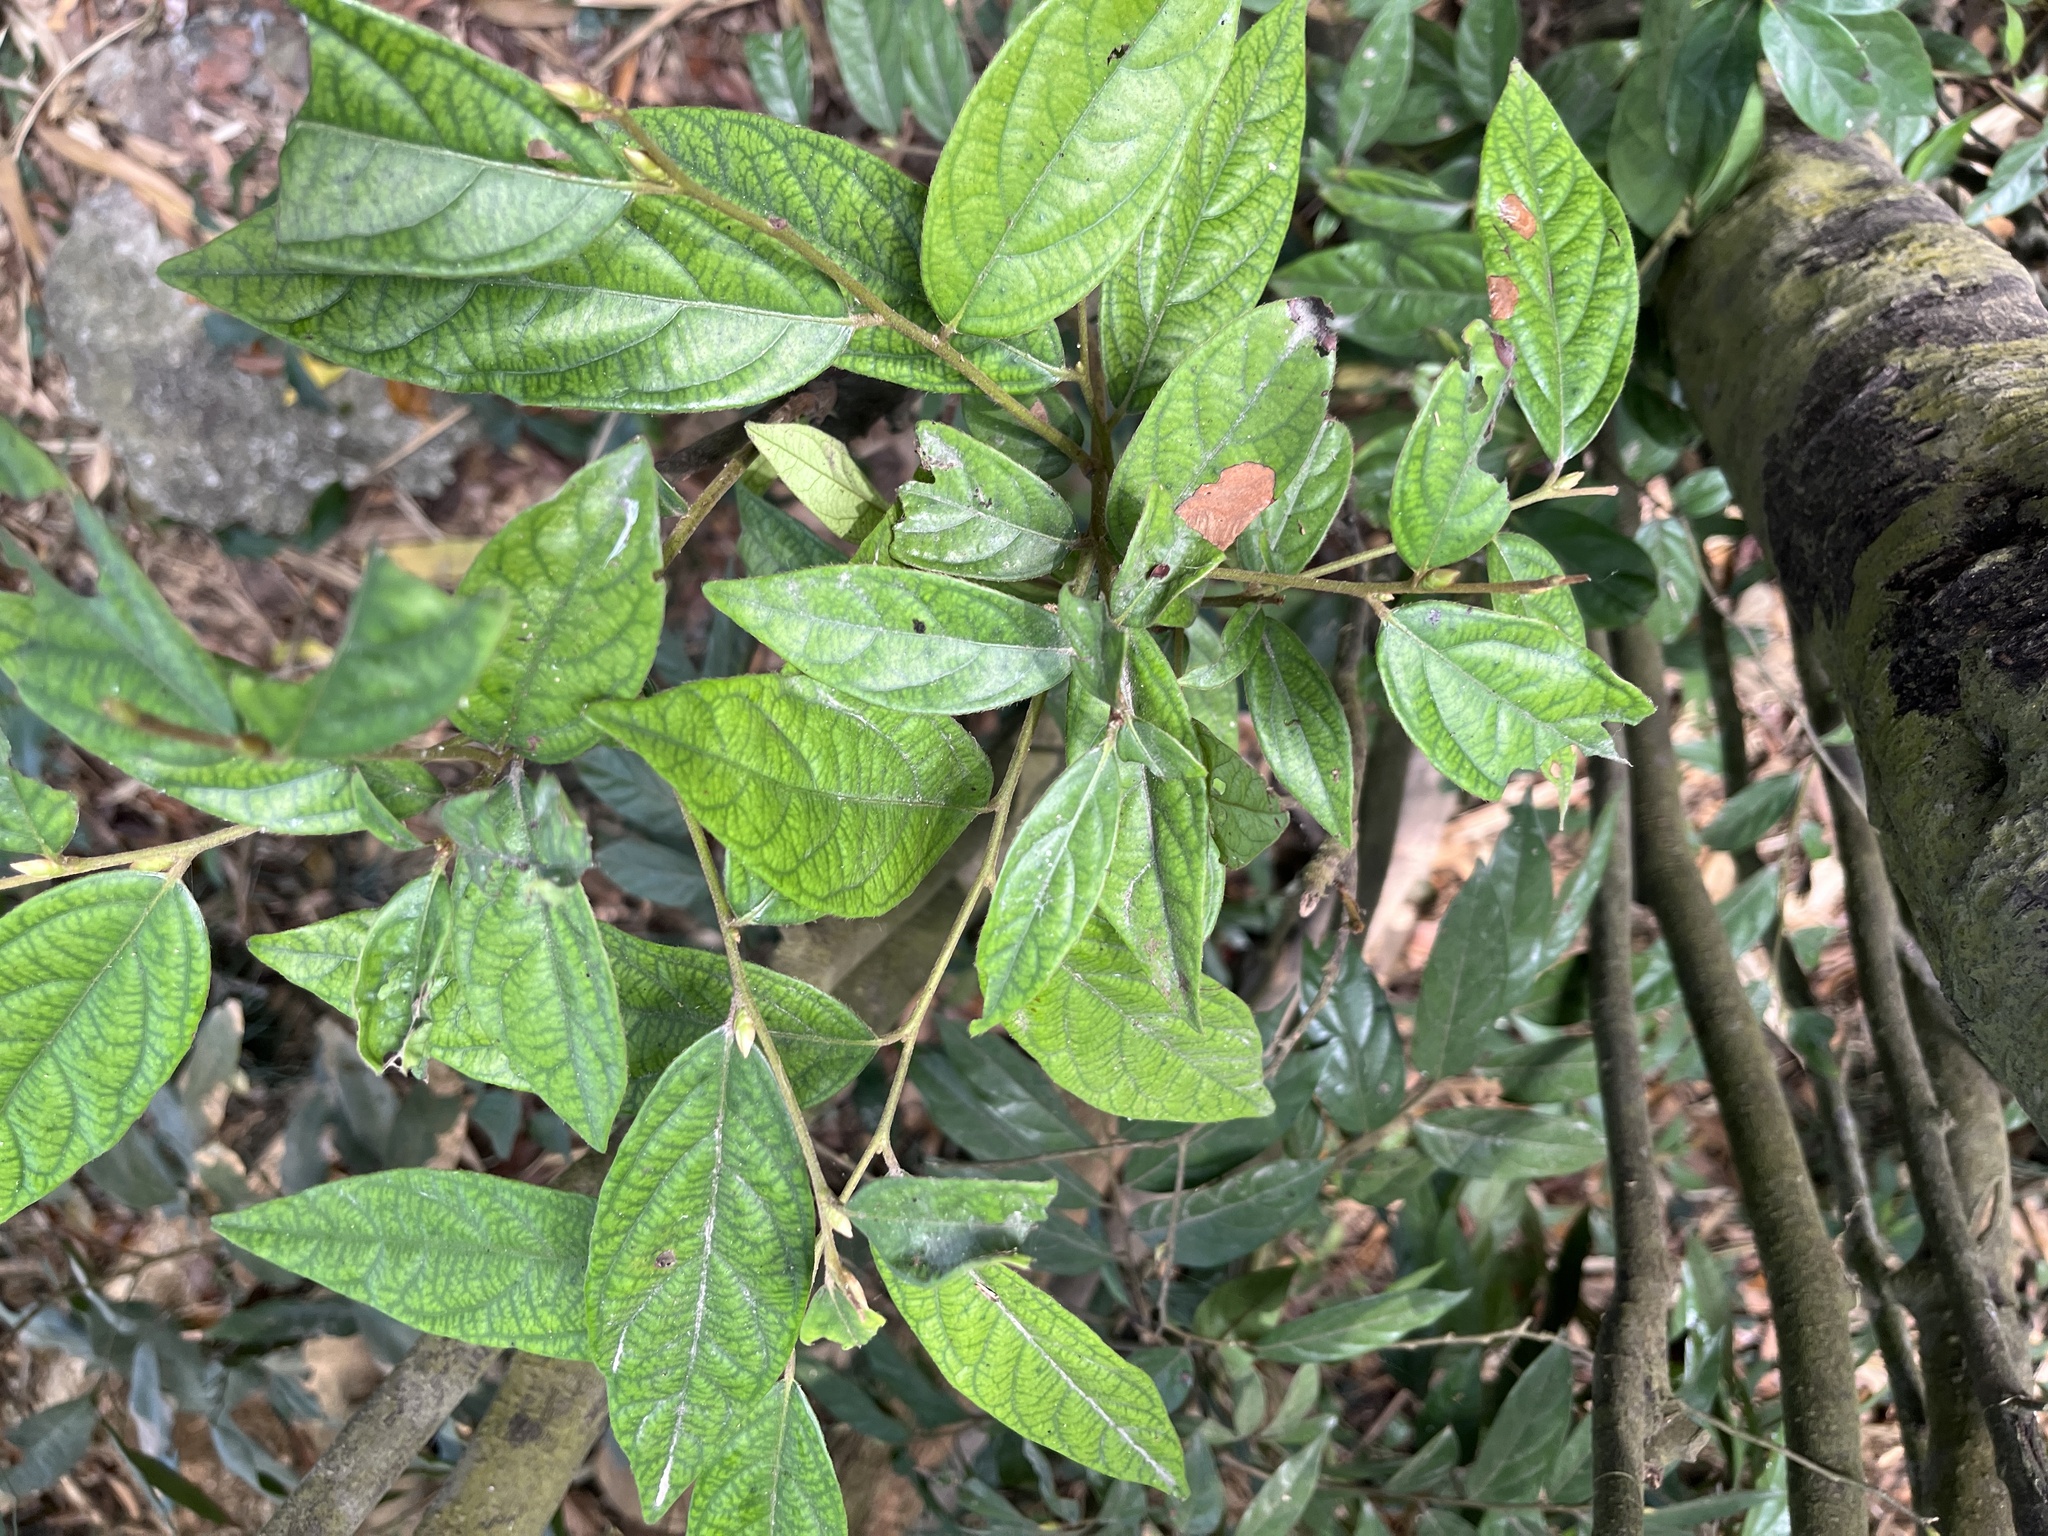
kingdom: Plantae
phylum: Tracheophyta
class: Magnoliopsida
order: Ericales
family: Ebenaceae
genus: Diospyros
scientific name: Diospyros eriantha
